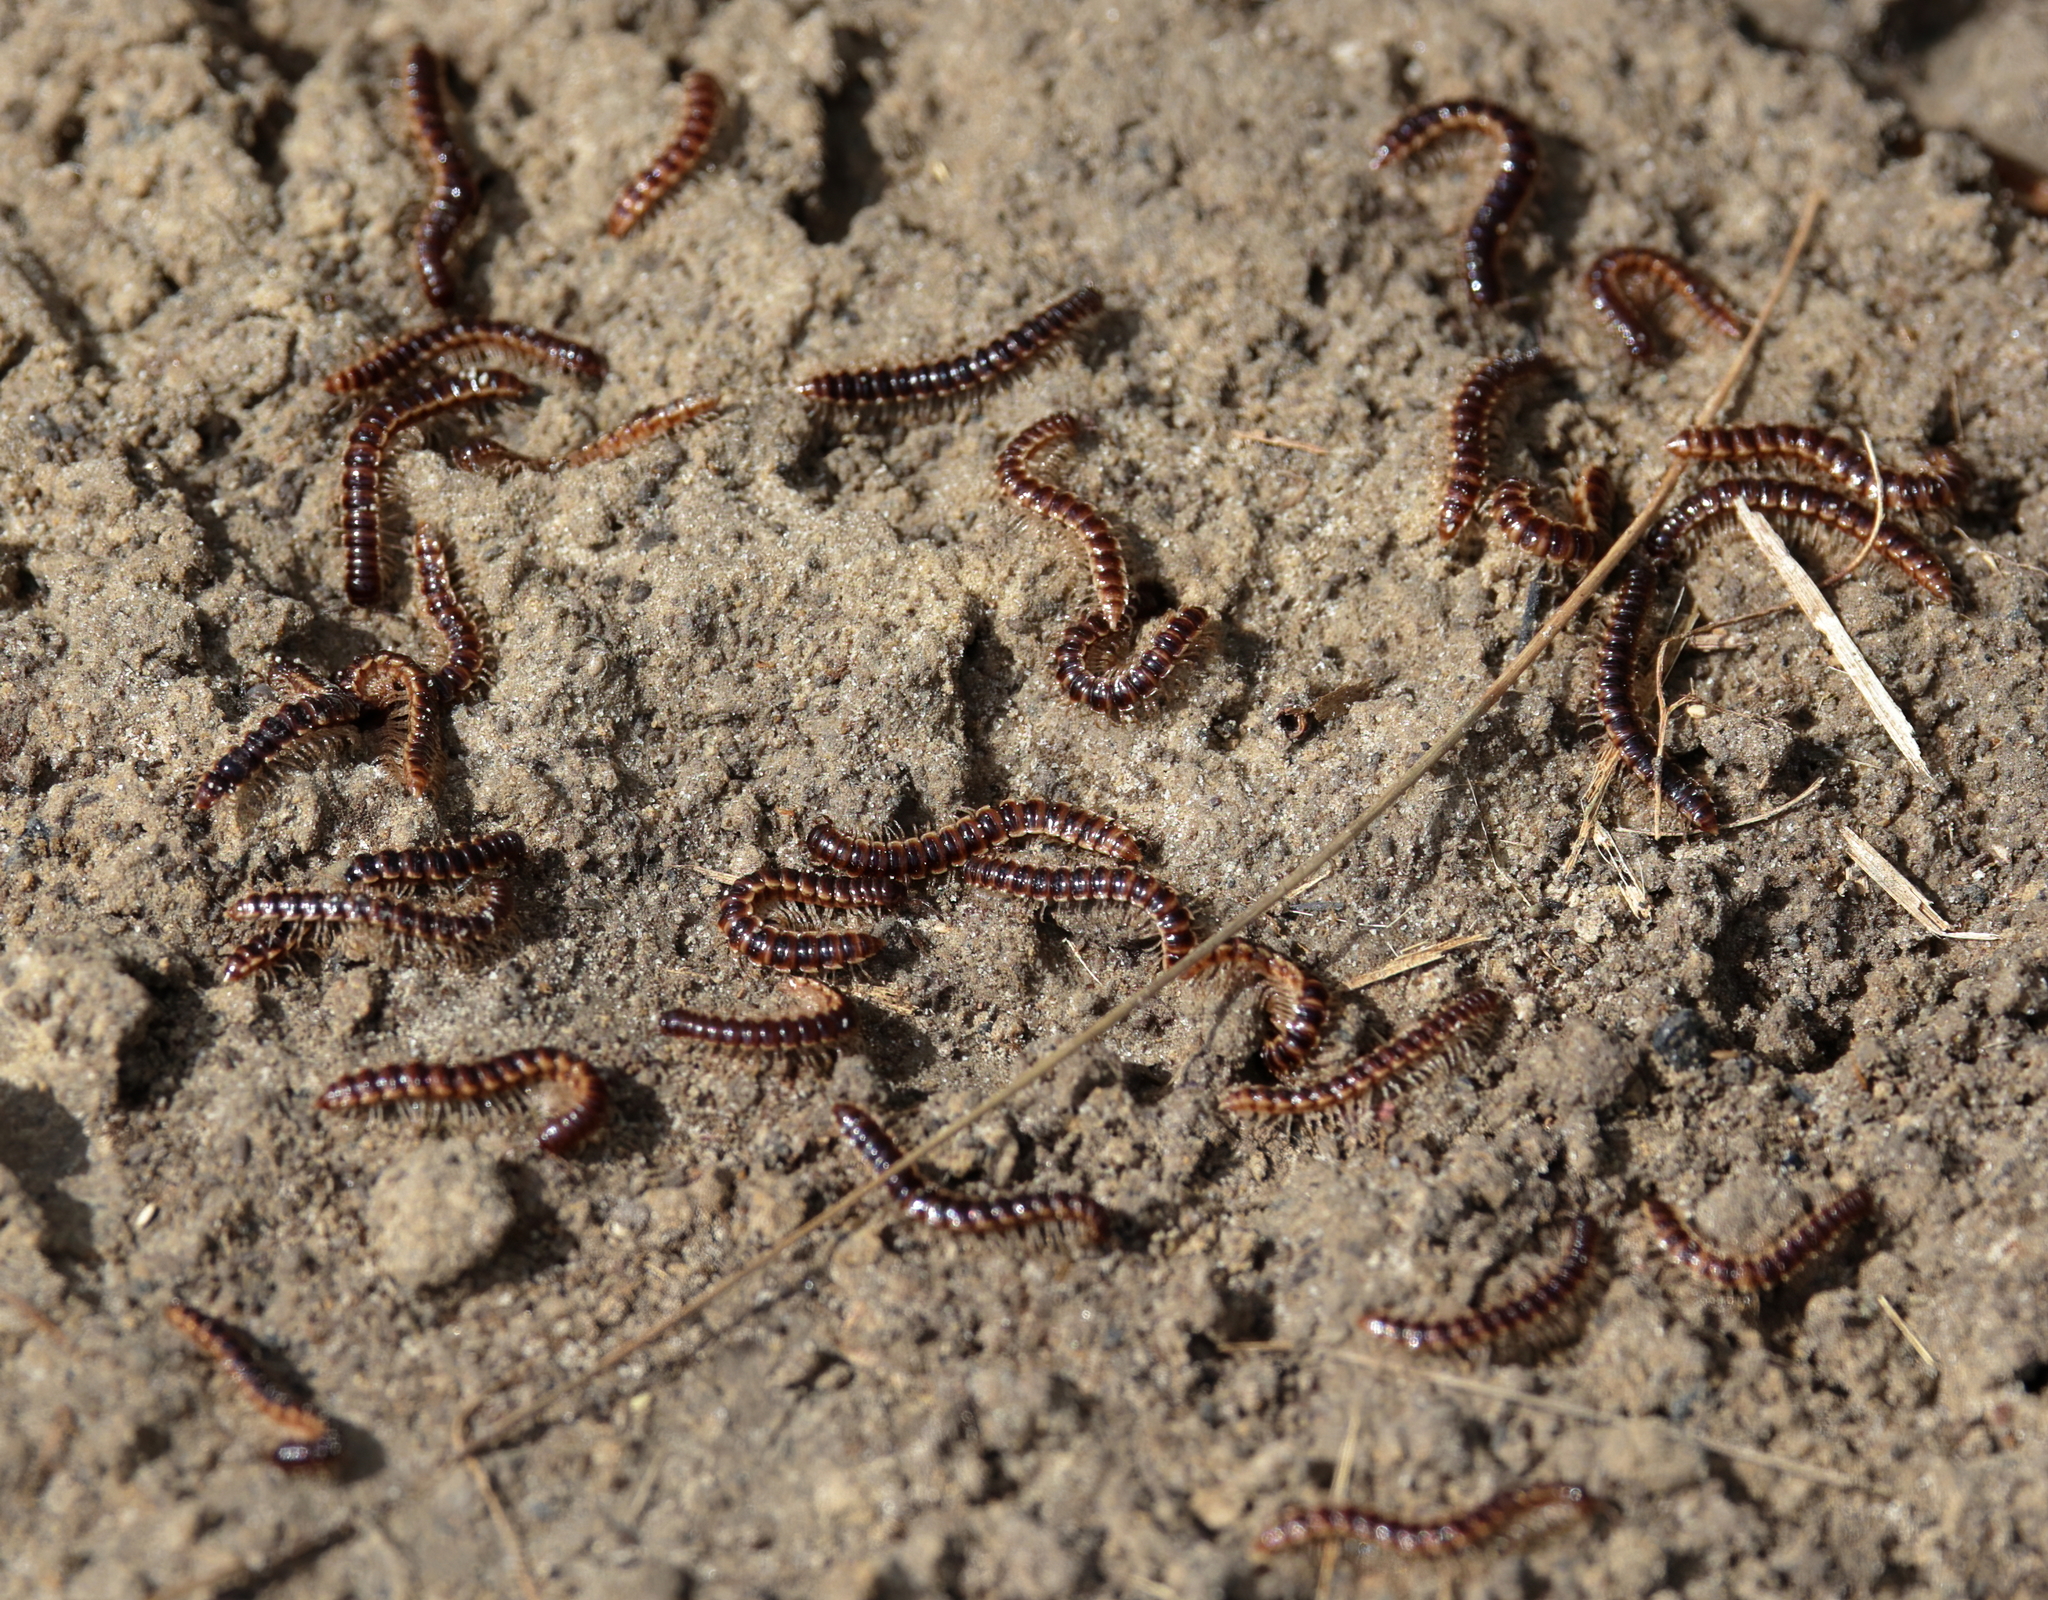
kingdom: Animalia
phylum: Arthropoda
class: Diplopoda
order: Polydesmida
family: Paradoxosomatidae
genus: Oxidus
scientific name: Oxidus gracilis
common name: Greenhouse millipede
